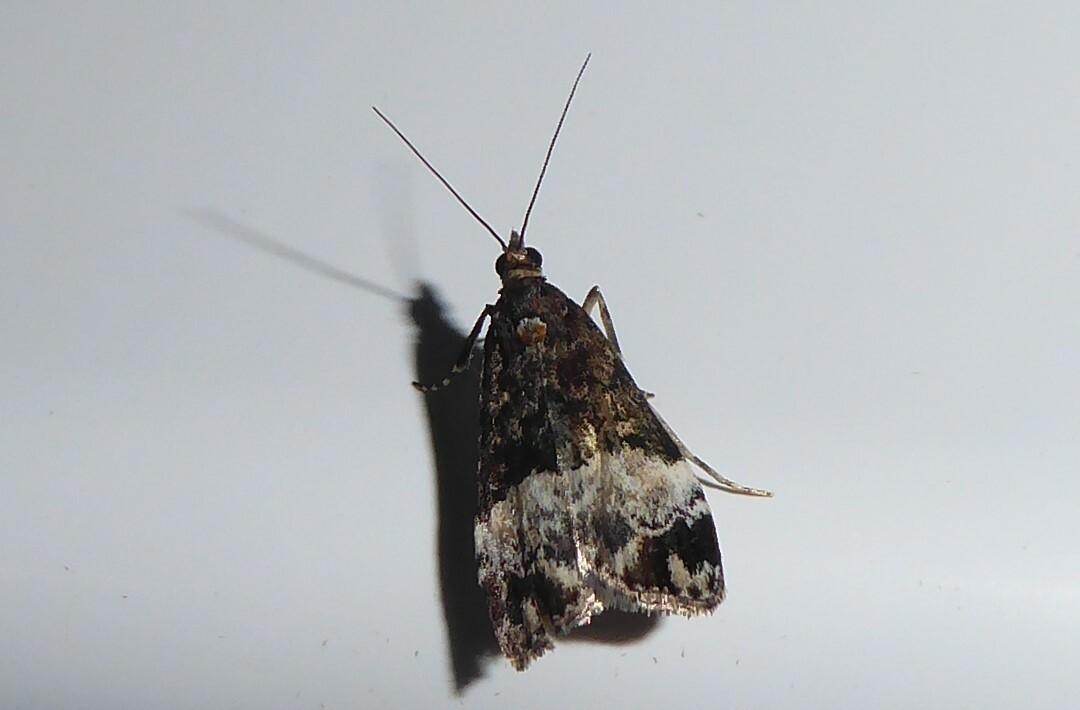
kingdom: Animalia
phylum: Arthropoda
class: Insecta
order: Lepidoptera
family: Crambidae
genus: Scoparia
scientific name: Scoparia minusculalis
